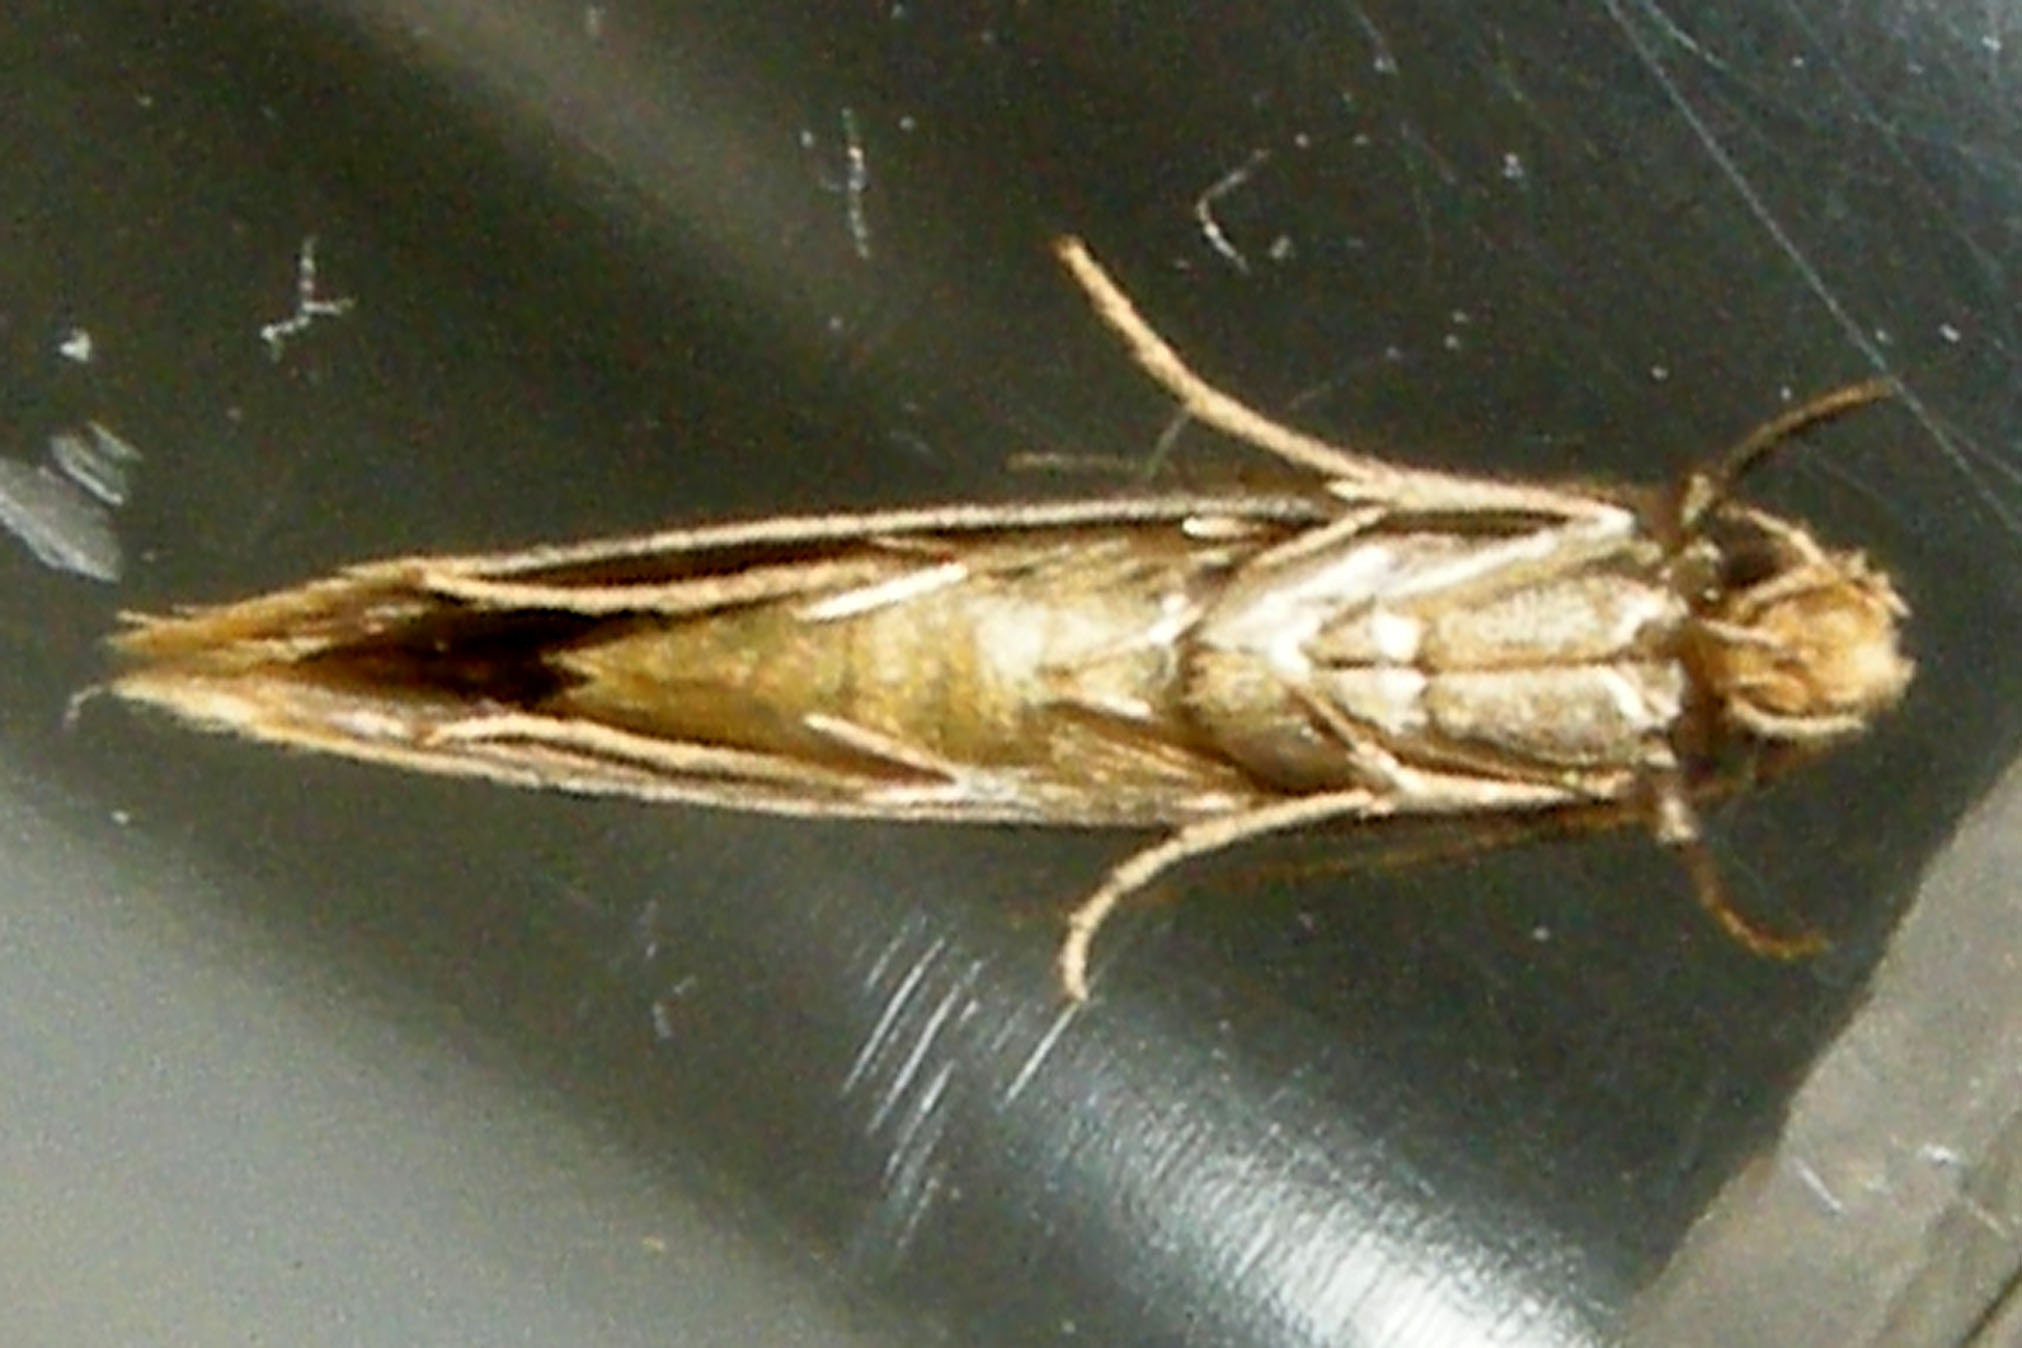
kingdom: Animalia
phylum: Arthropoda
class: Insecta
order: Lepidoptera
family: Meessiidae
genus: Hybroma
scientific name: Hybroma servulella
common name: Yellow wave moth
